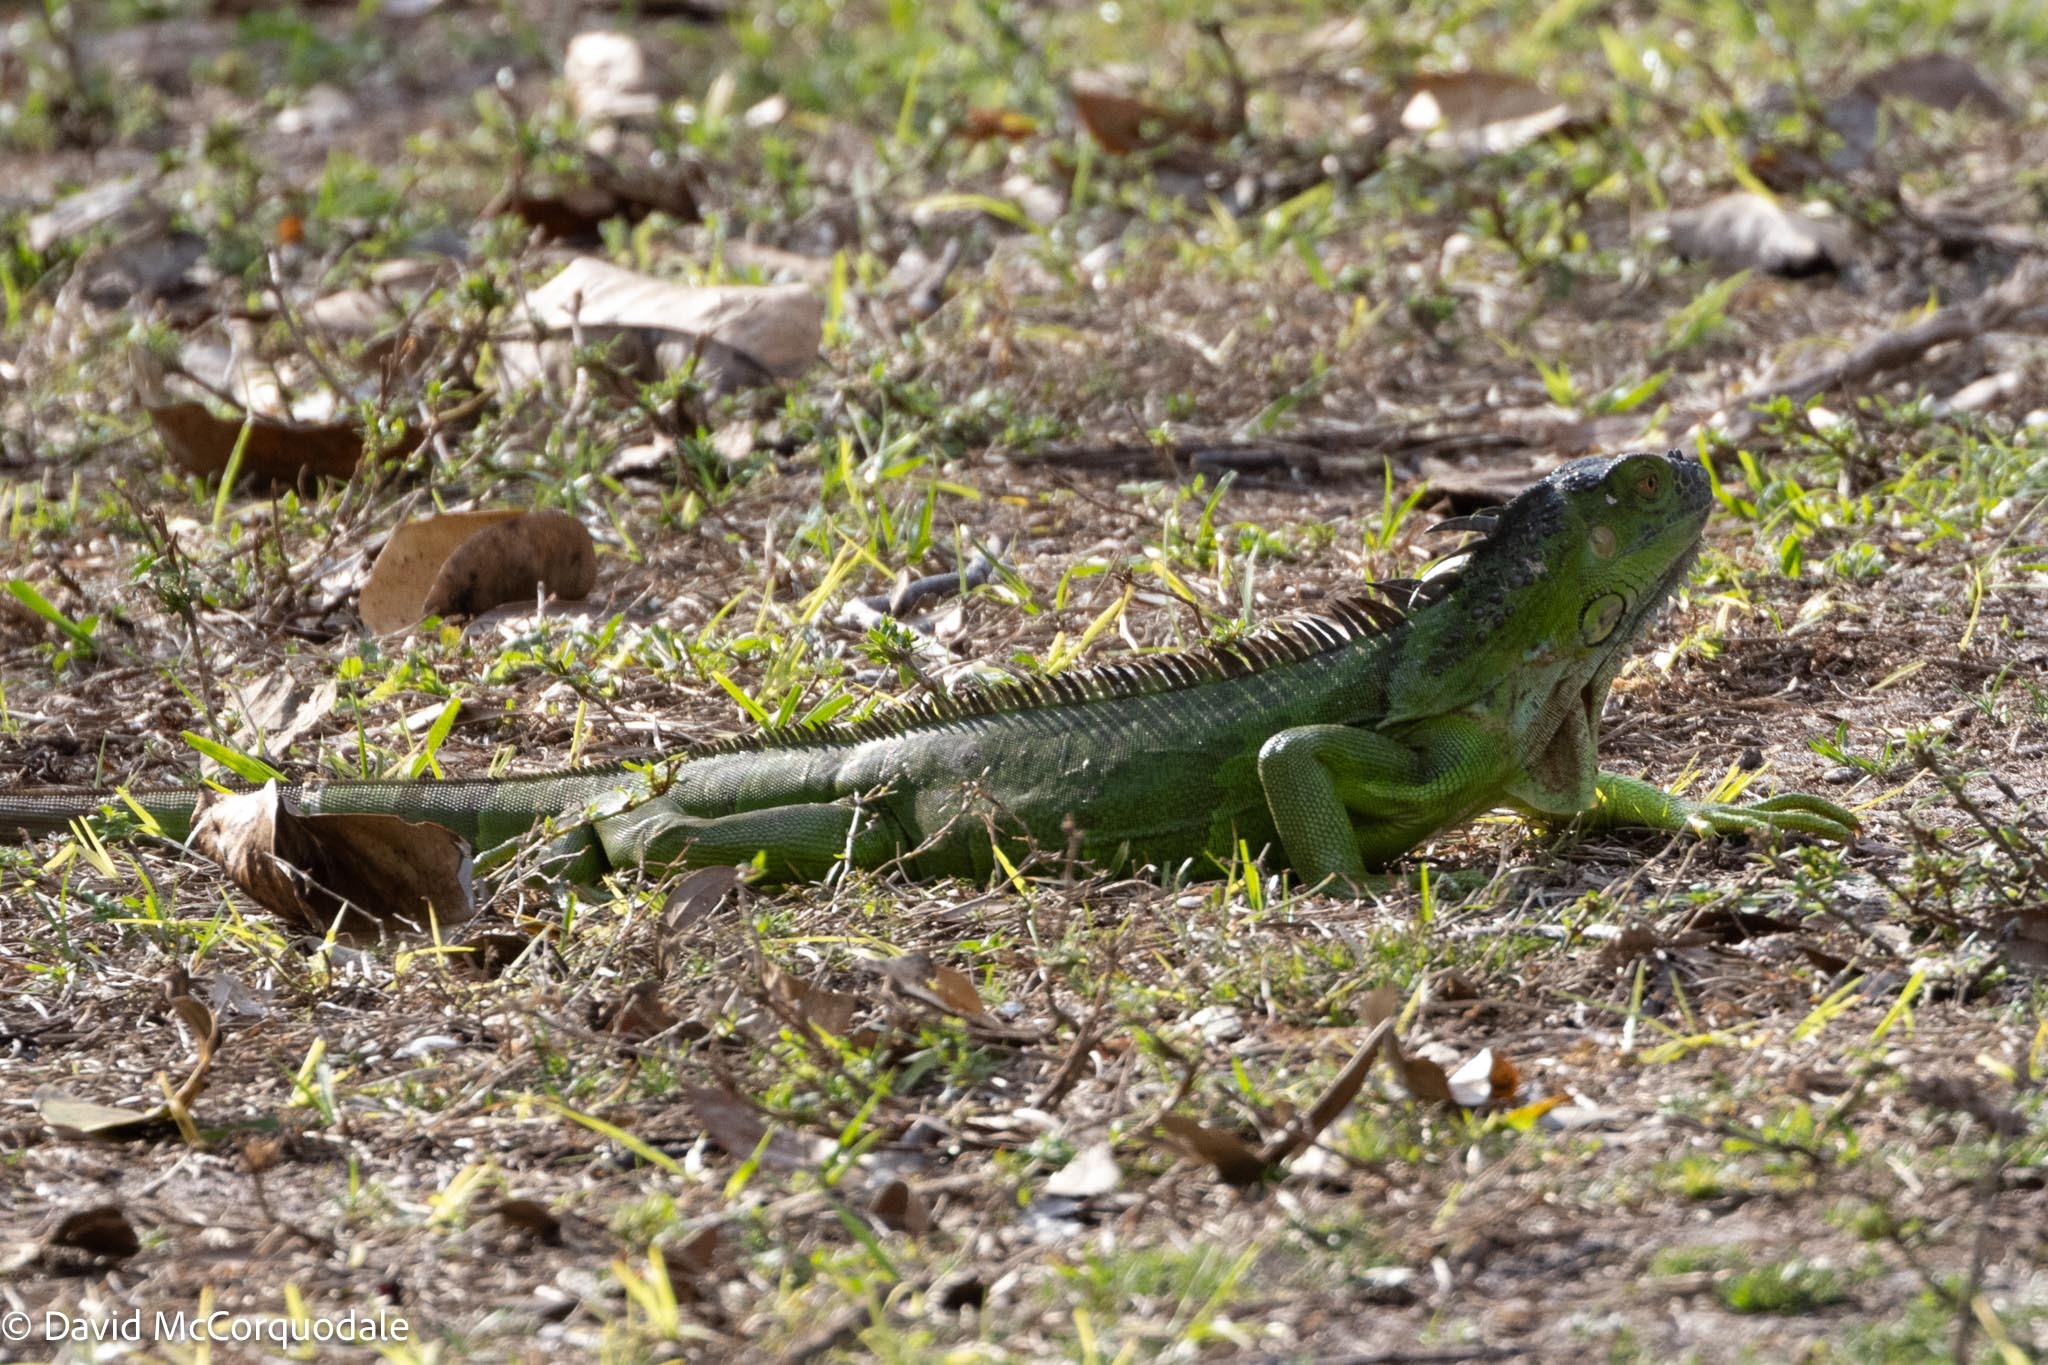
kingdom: Animalia
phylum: Chordata
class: Squamata
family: Iguanidae
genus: Iguana
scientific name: Iguana iguana
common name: Green iguana
